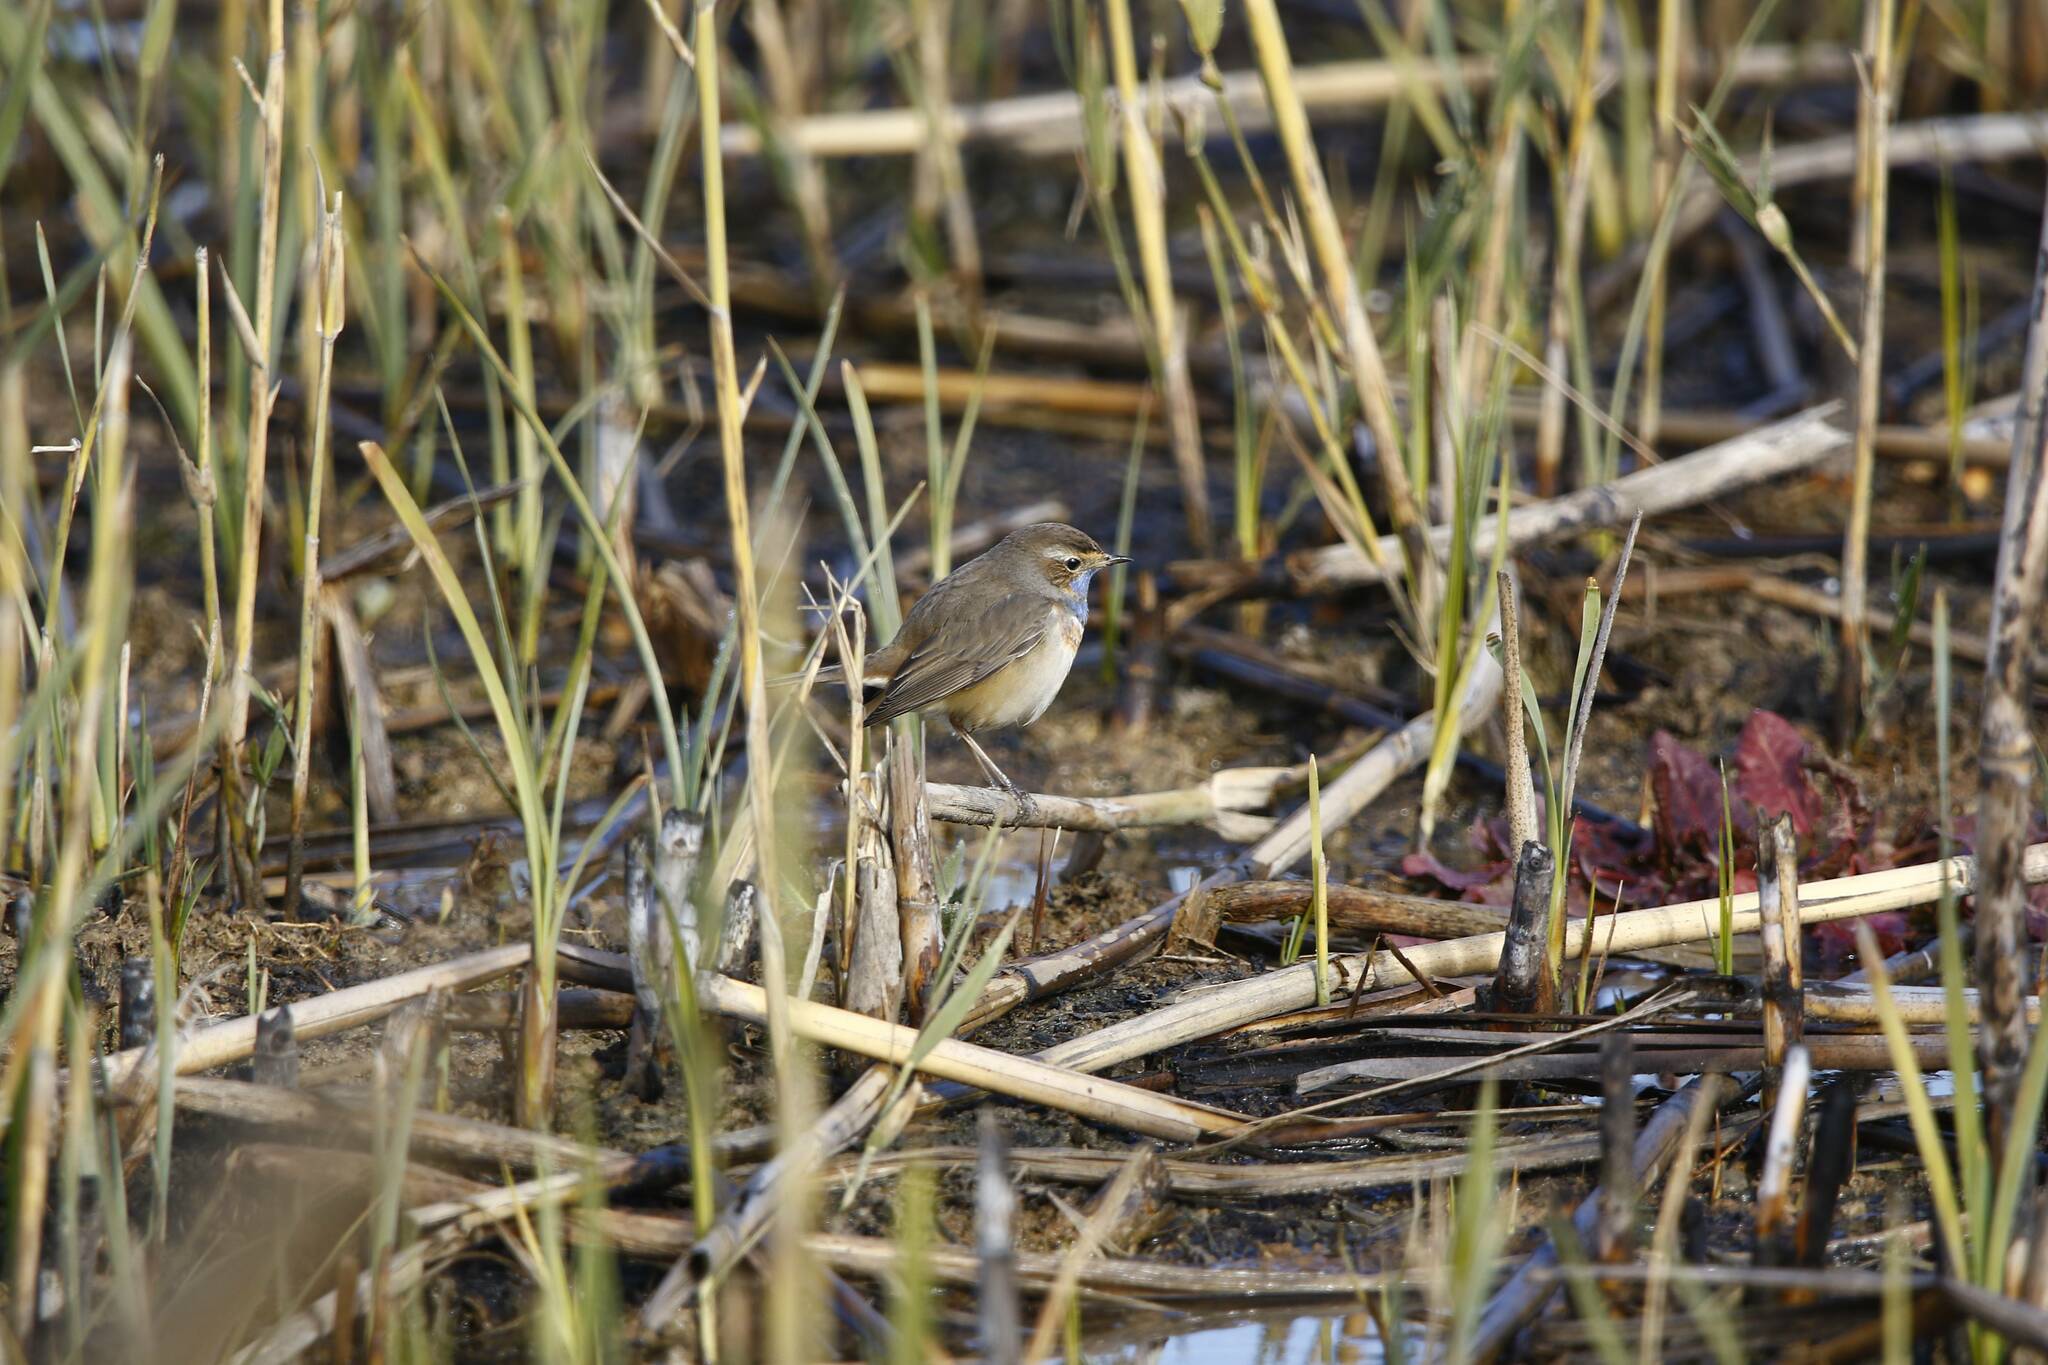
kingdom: Animalia
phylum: Chordata
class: Aves
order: Passeriformes
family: Muscicapidae
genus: Luscinia
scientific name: Luscinia svecica
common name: Bluethroat
